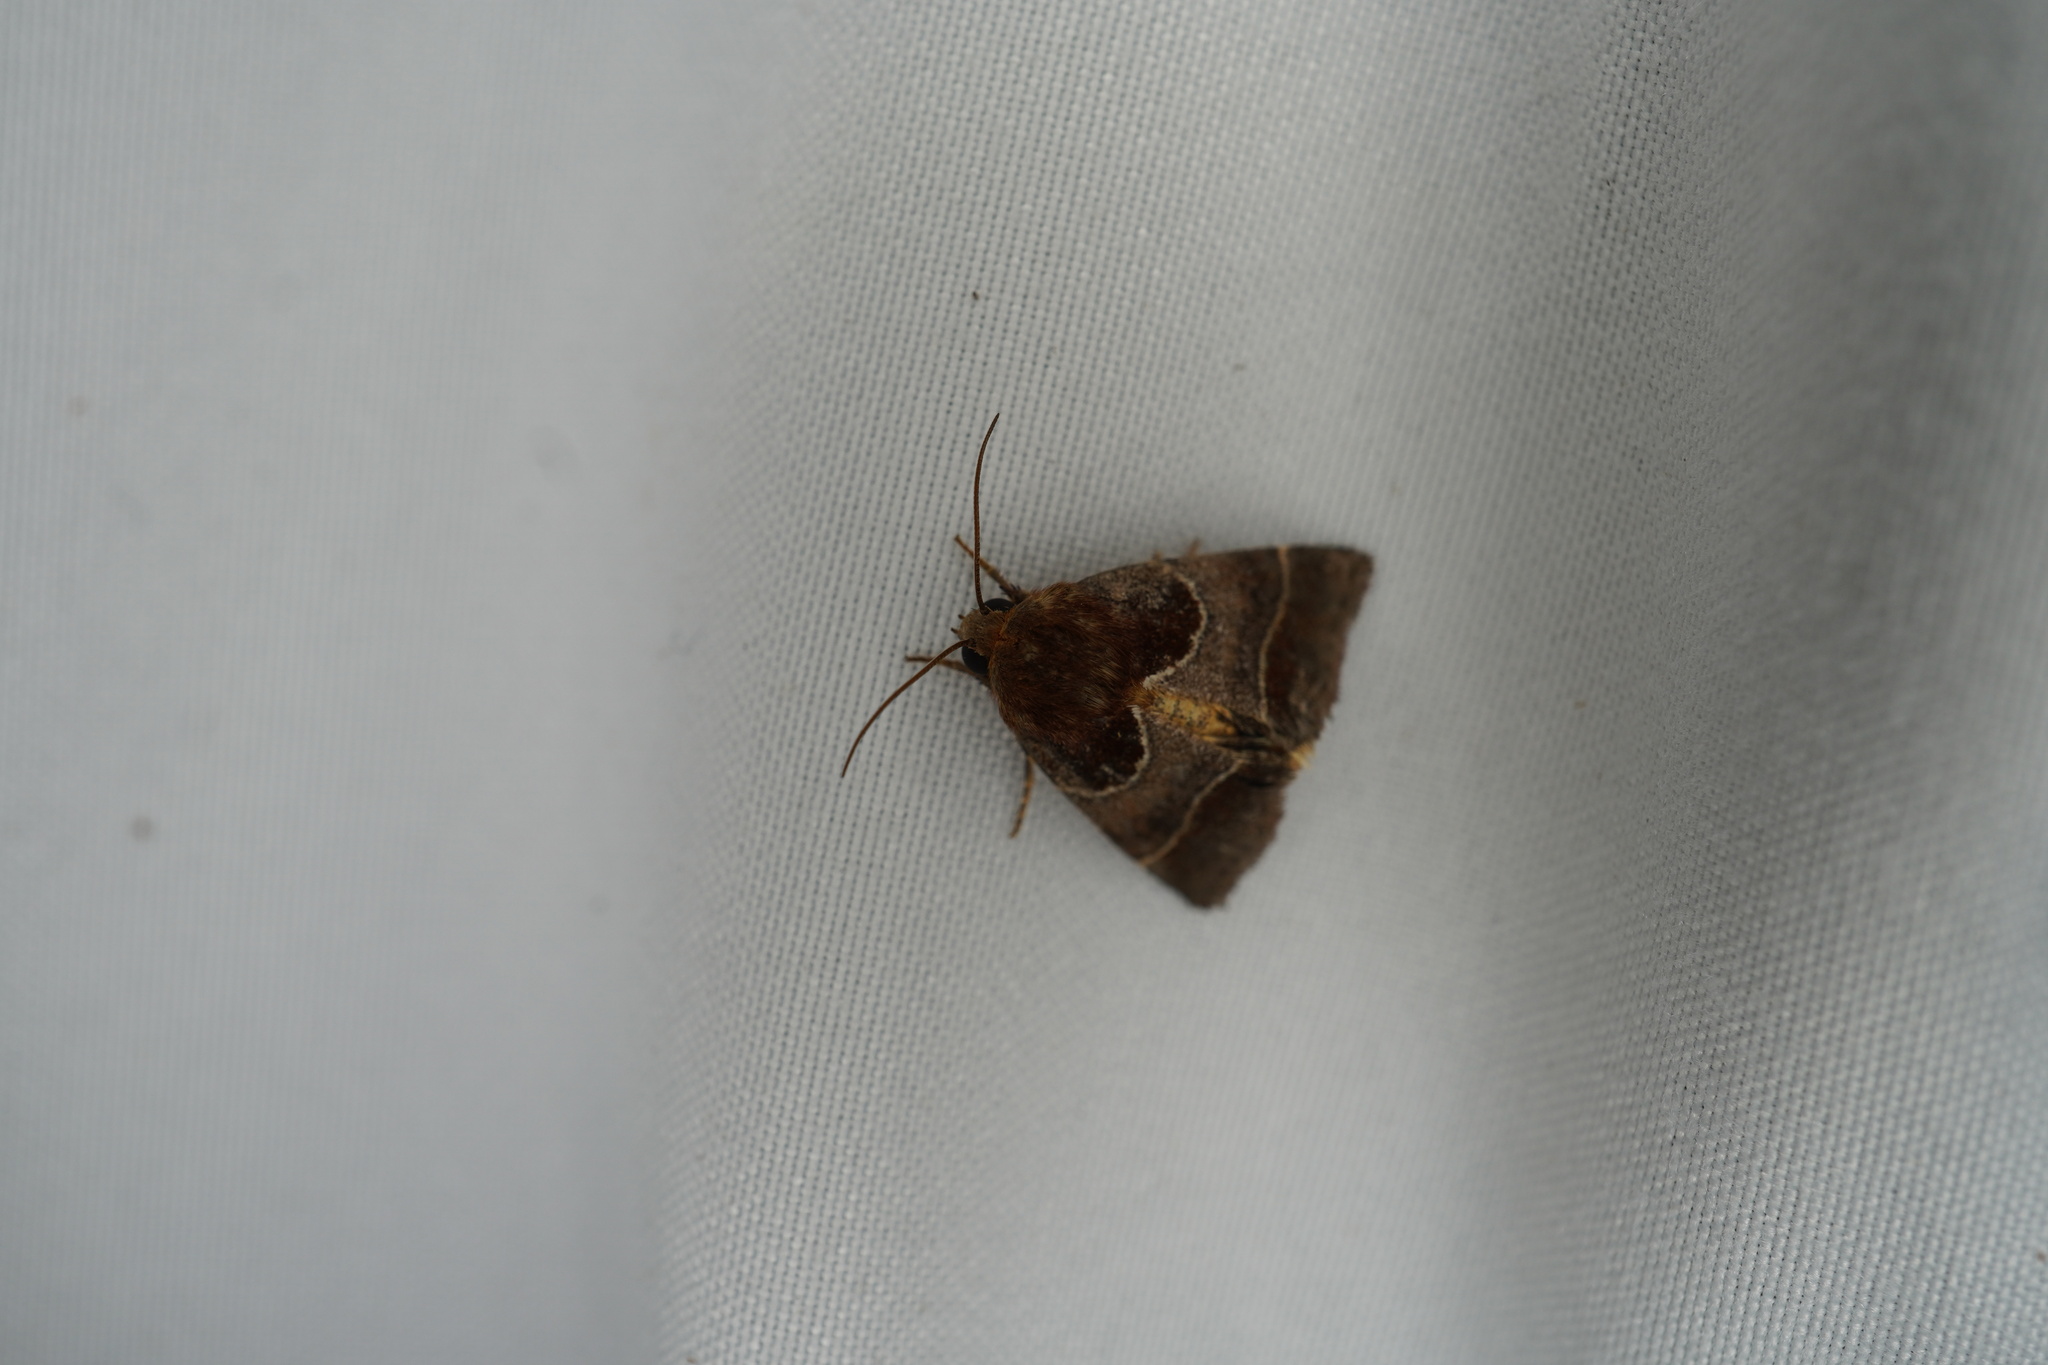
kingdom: Animalia
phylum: Arthropoda
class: Insecta
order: Lepidoptera
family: Noctuidae
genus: Schinia
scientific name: Schinia arcigera
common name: Arcigera flower moth
